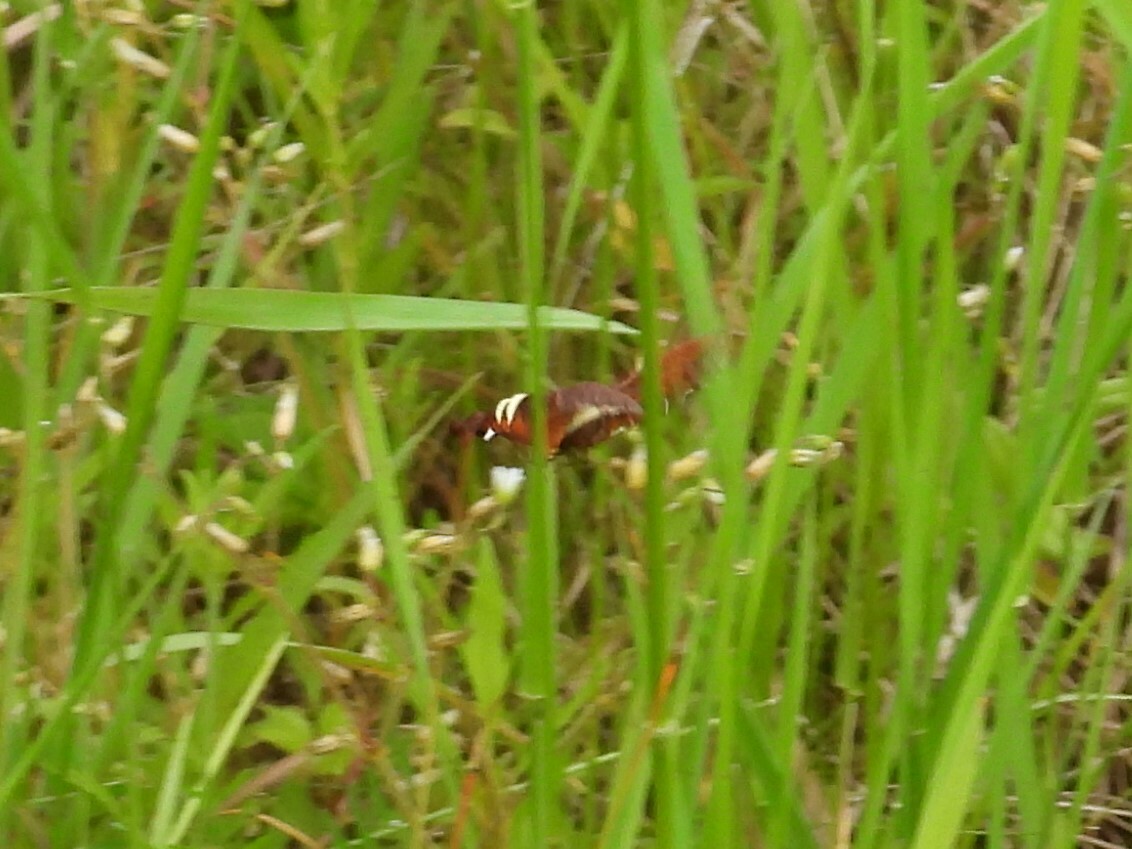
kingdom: Animalia
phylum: Arthropoda
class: Insecta
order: Lepidoptera
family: Sphingidae
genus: Amphion
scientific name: Amphion floridensis
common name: Nessus sphinx
